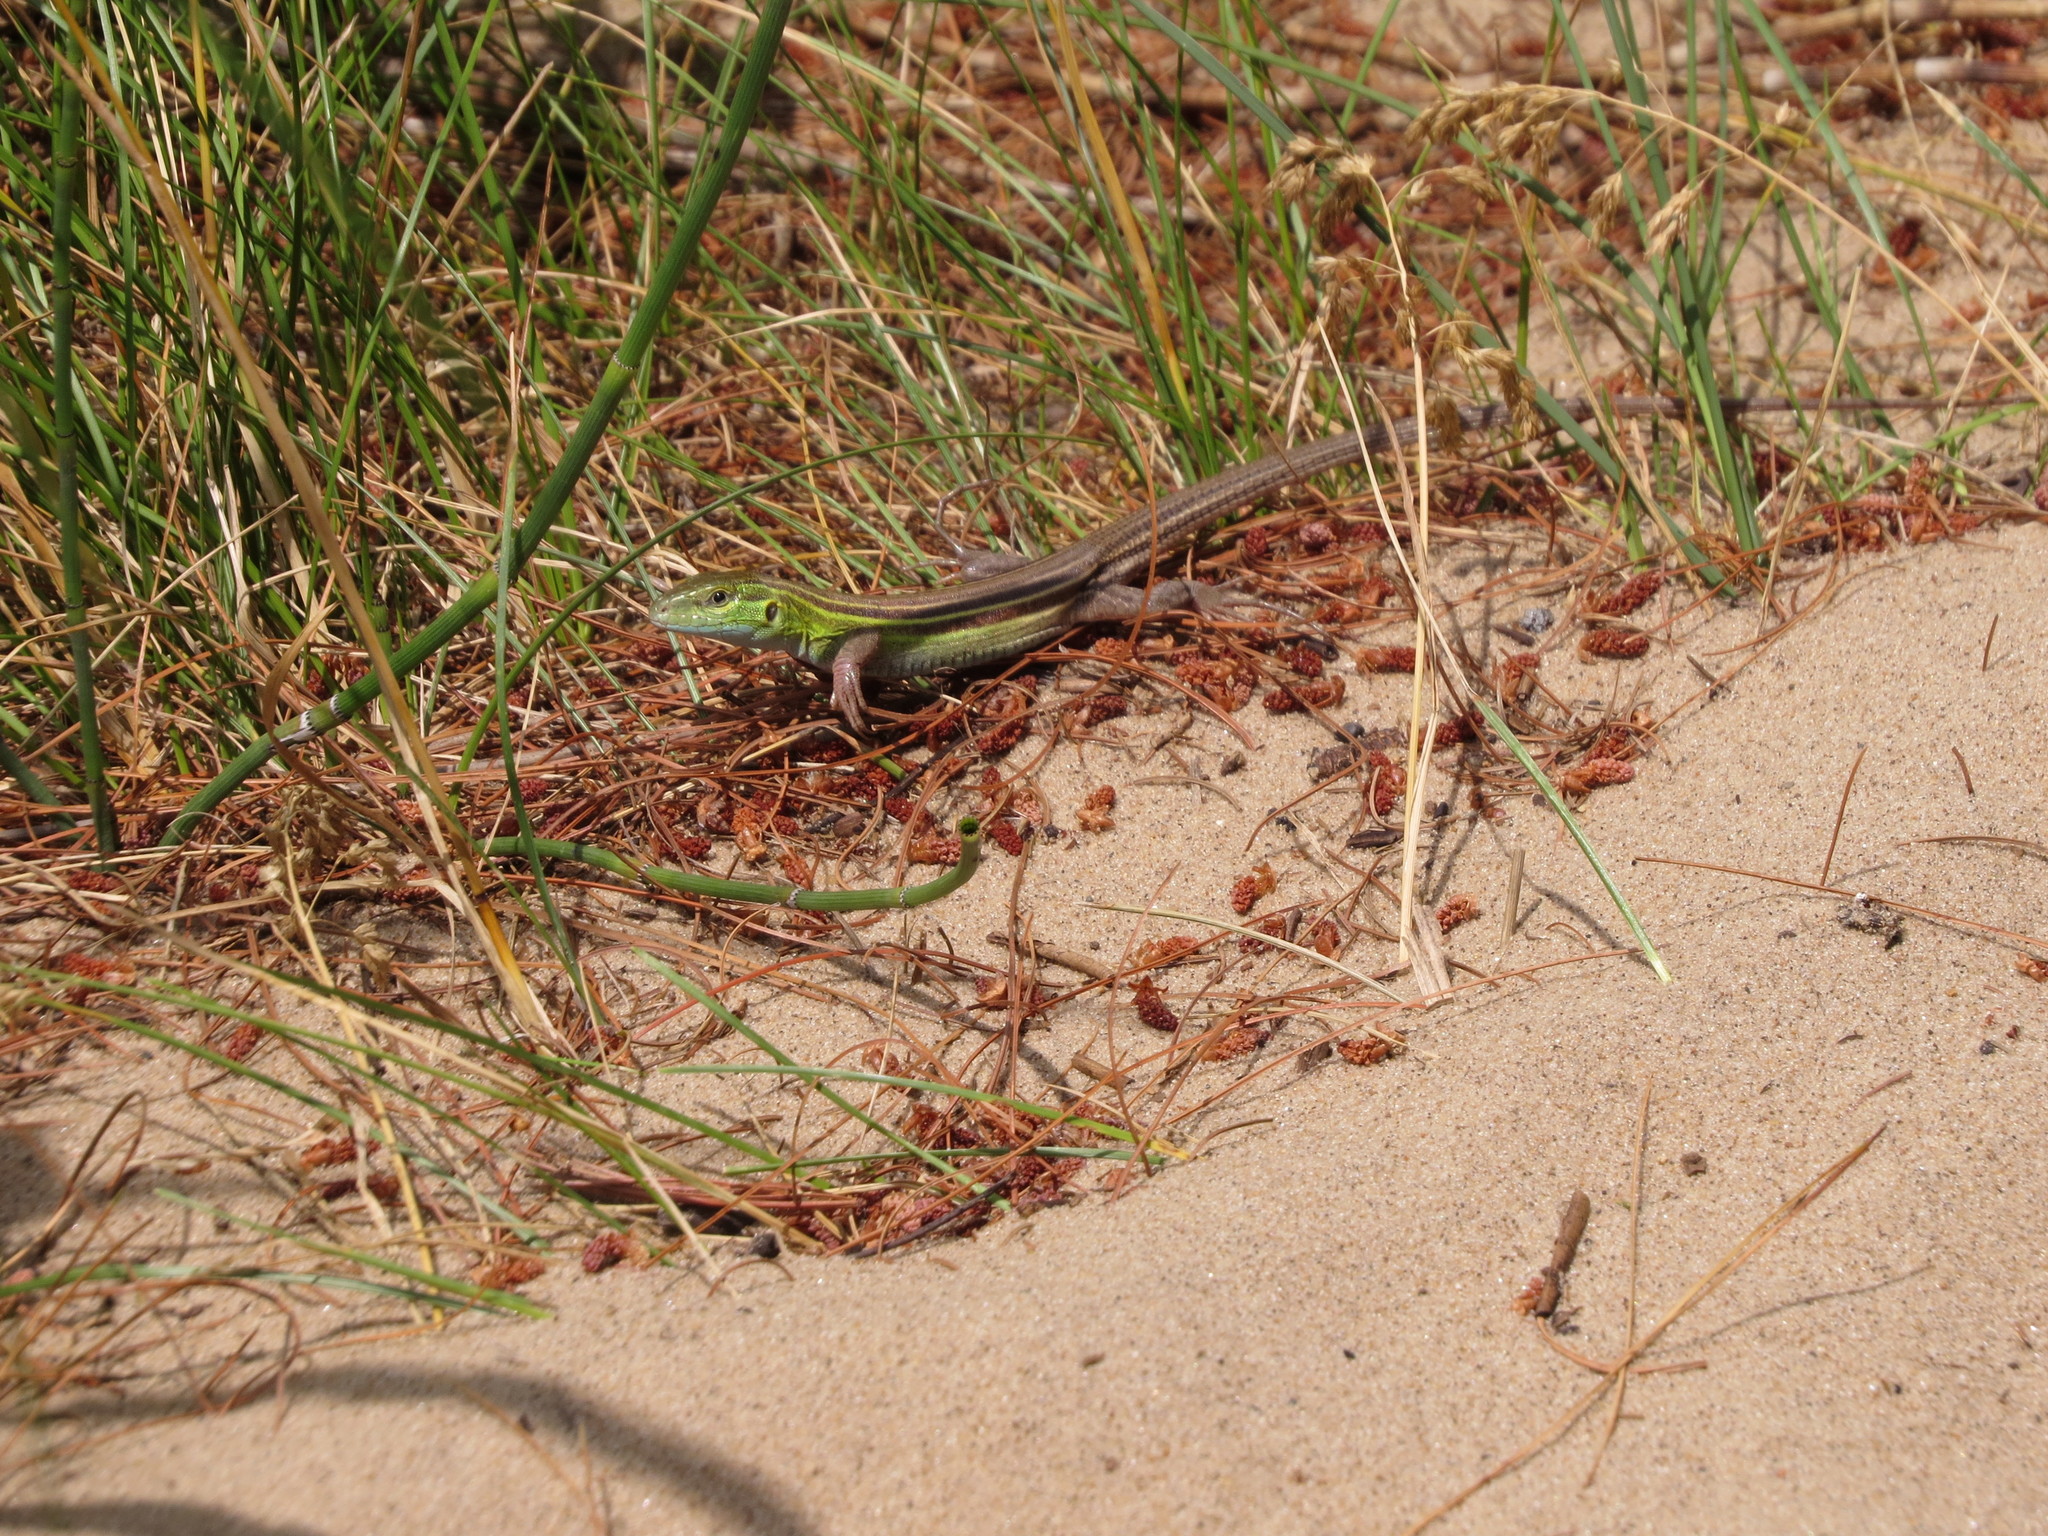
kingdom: Animalia
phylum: Chordata
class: Squamata
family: Teiidae
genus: Aspidoscelis
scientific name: Aspidoscelis sexlineatus
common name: Six-lined racerunner
